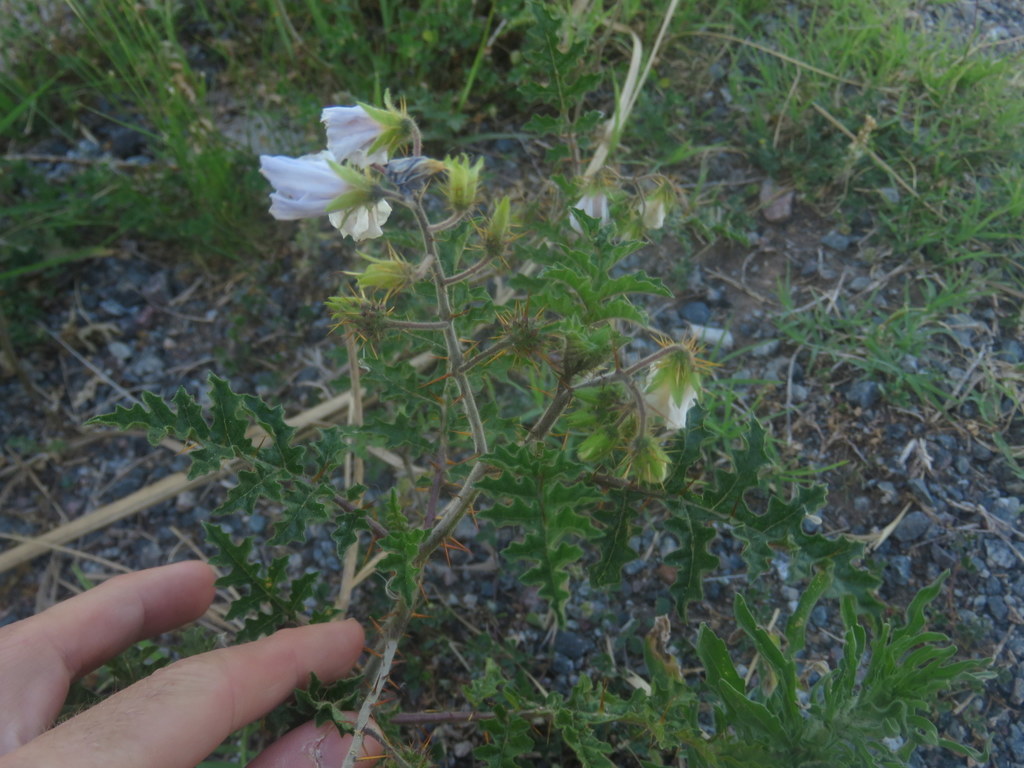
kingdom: Plantae
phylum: Tracheophyta
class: Magnoliopsida
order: Solanales
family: Solanaceae
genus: Solanum
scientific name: Solanum sisymbriifolium
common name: Red buffalo-bur
